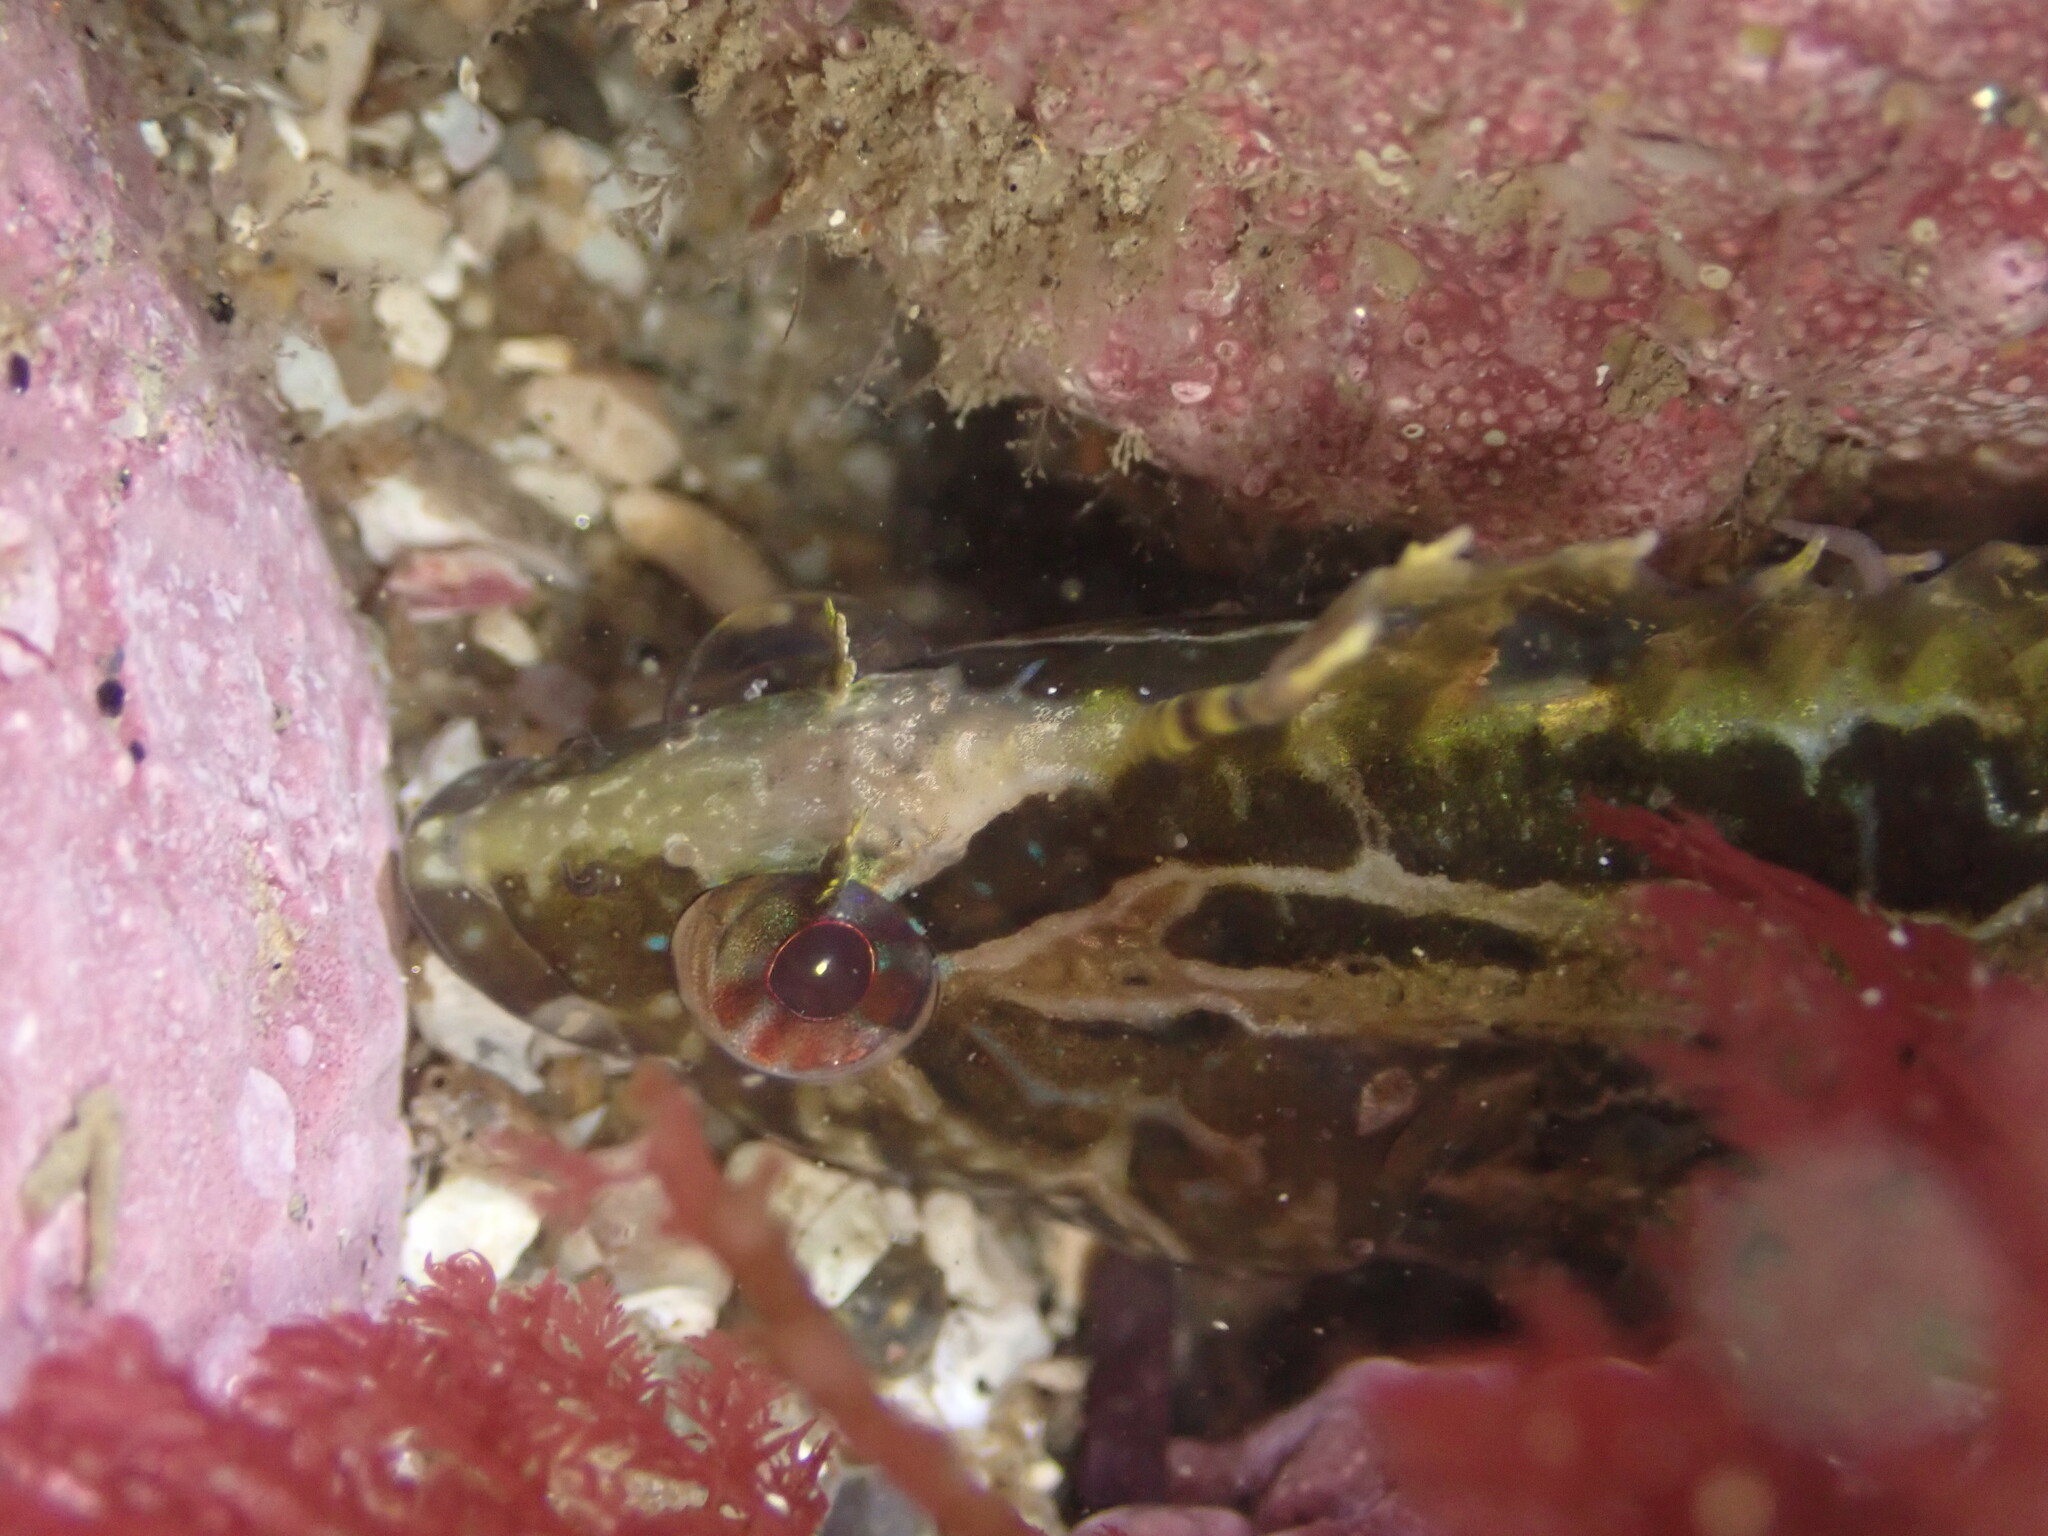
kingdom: Animalia
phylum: Chordata
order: Perciformes
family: Clinidae
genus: Gibbonsia
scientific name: Gibbonsia elegans
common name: Spotted kelpfish
